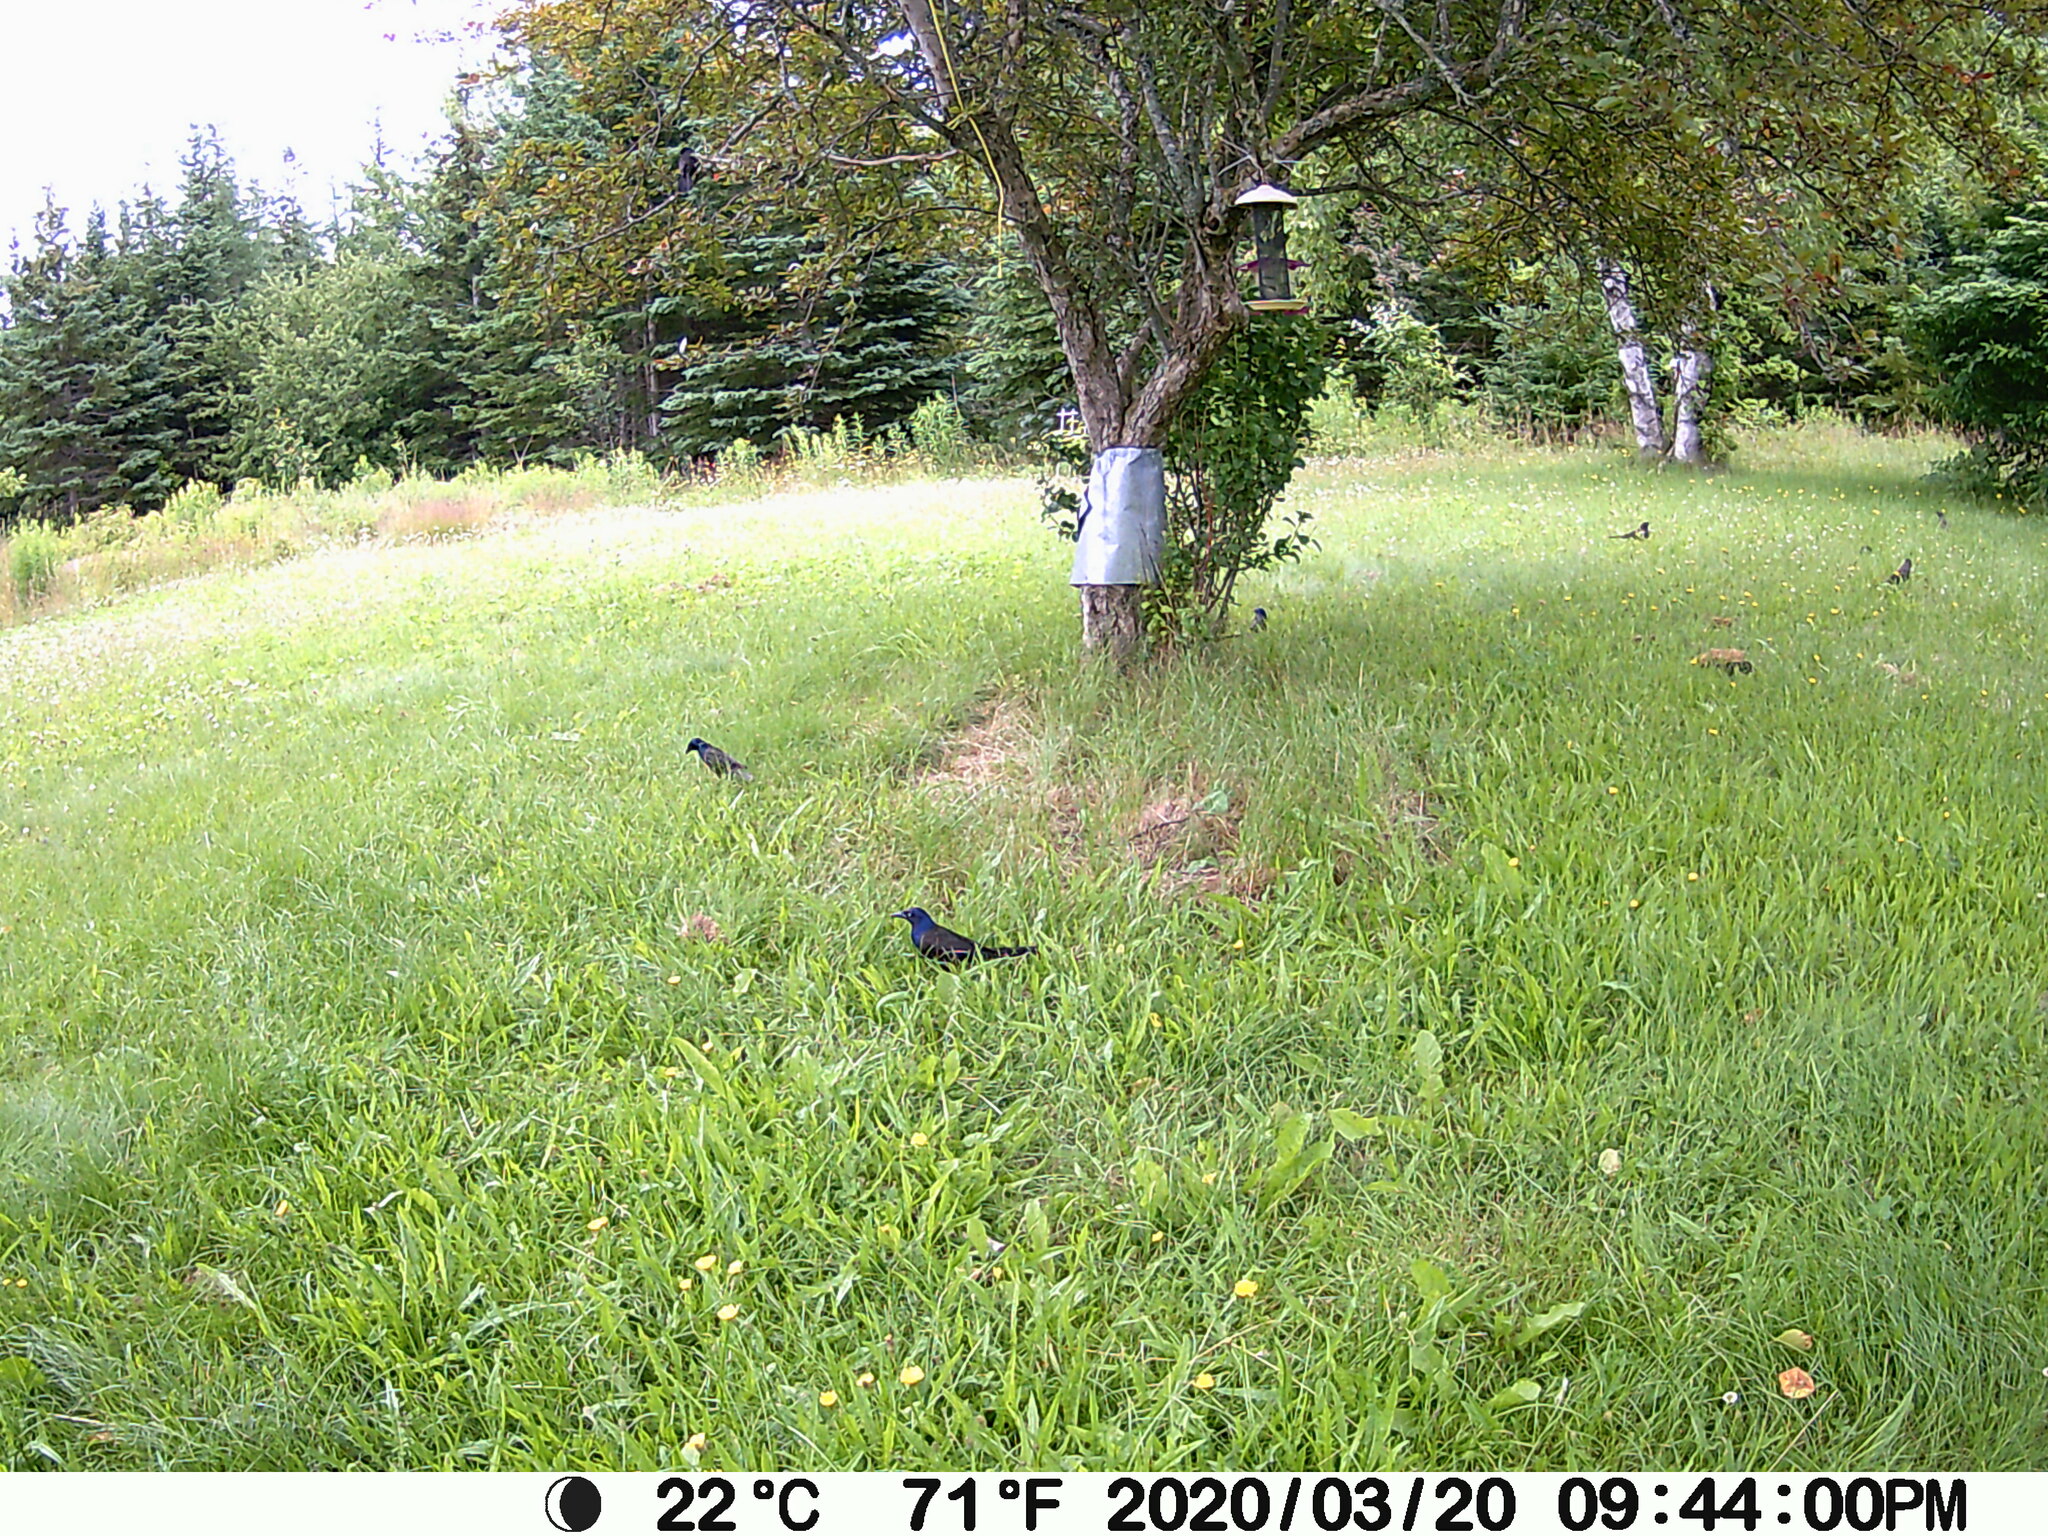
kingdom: Animalia
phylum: Chordata
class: Aves
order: Passeriformes
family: Icteridae
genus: Quiscalus
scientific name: Quiscalus quiscula
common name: Common grackle
